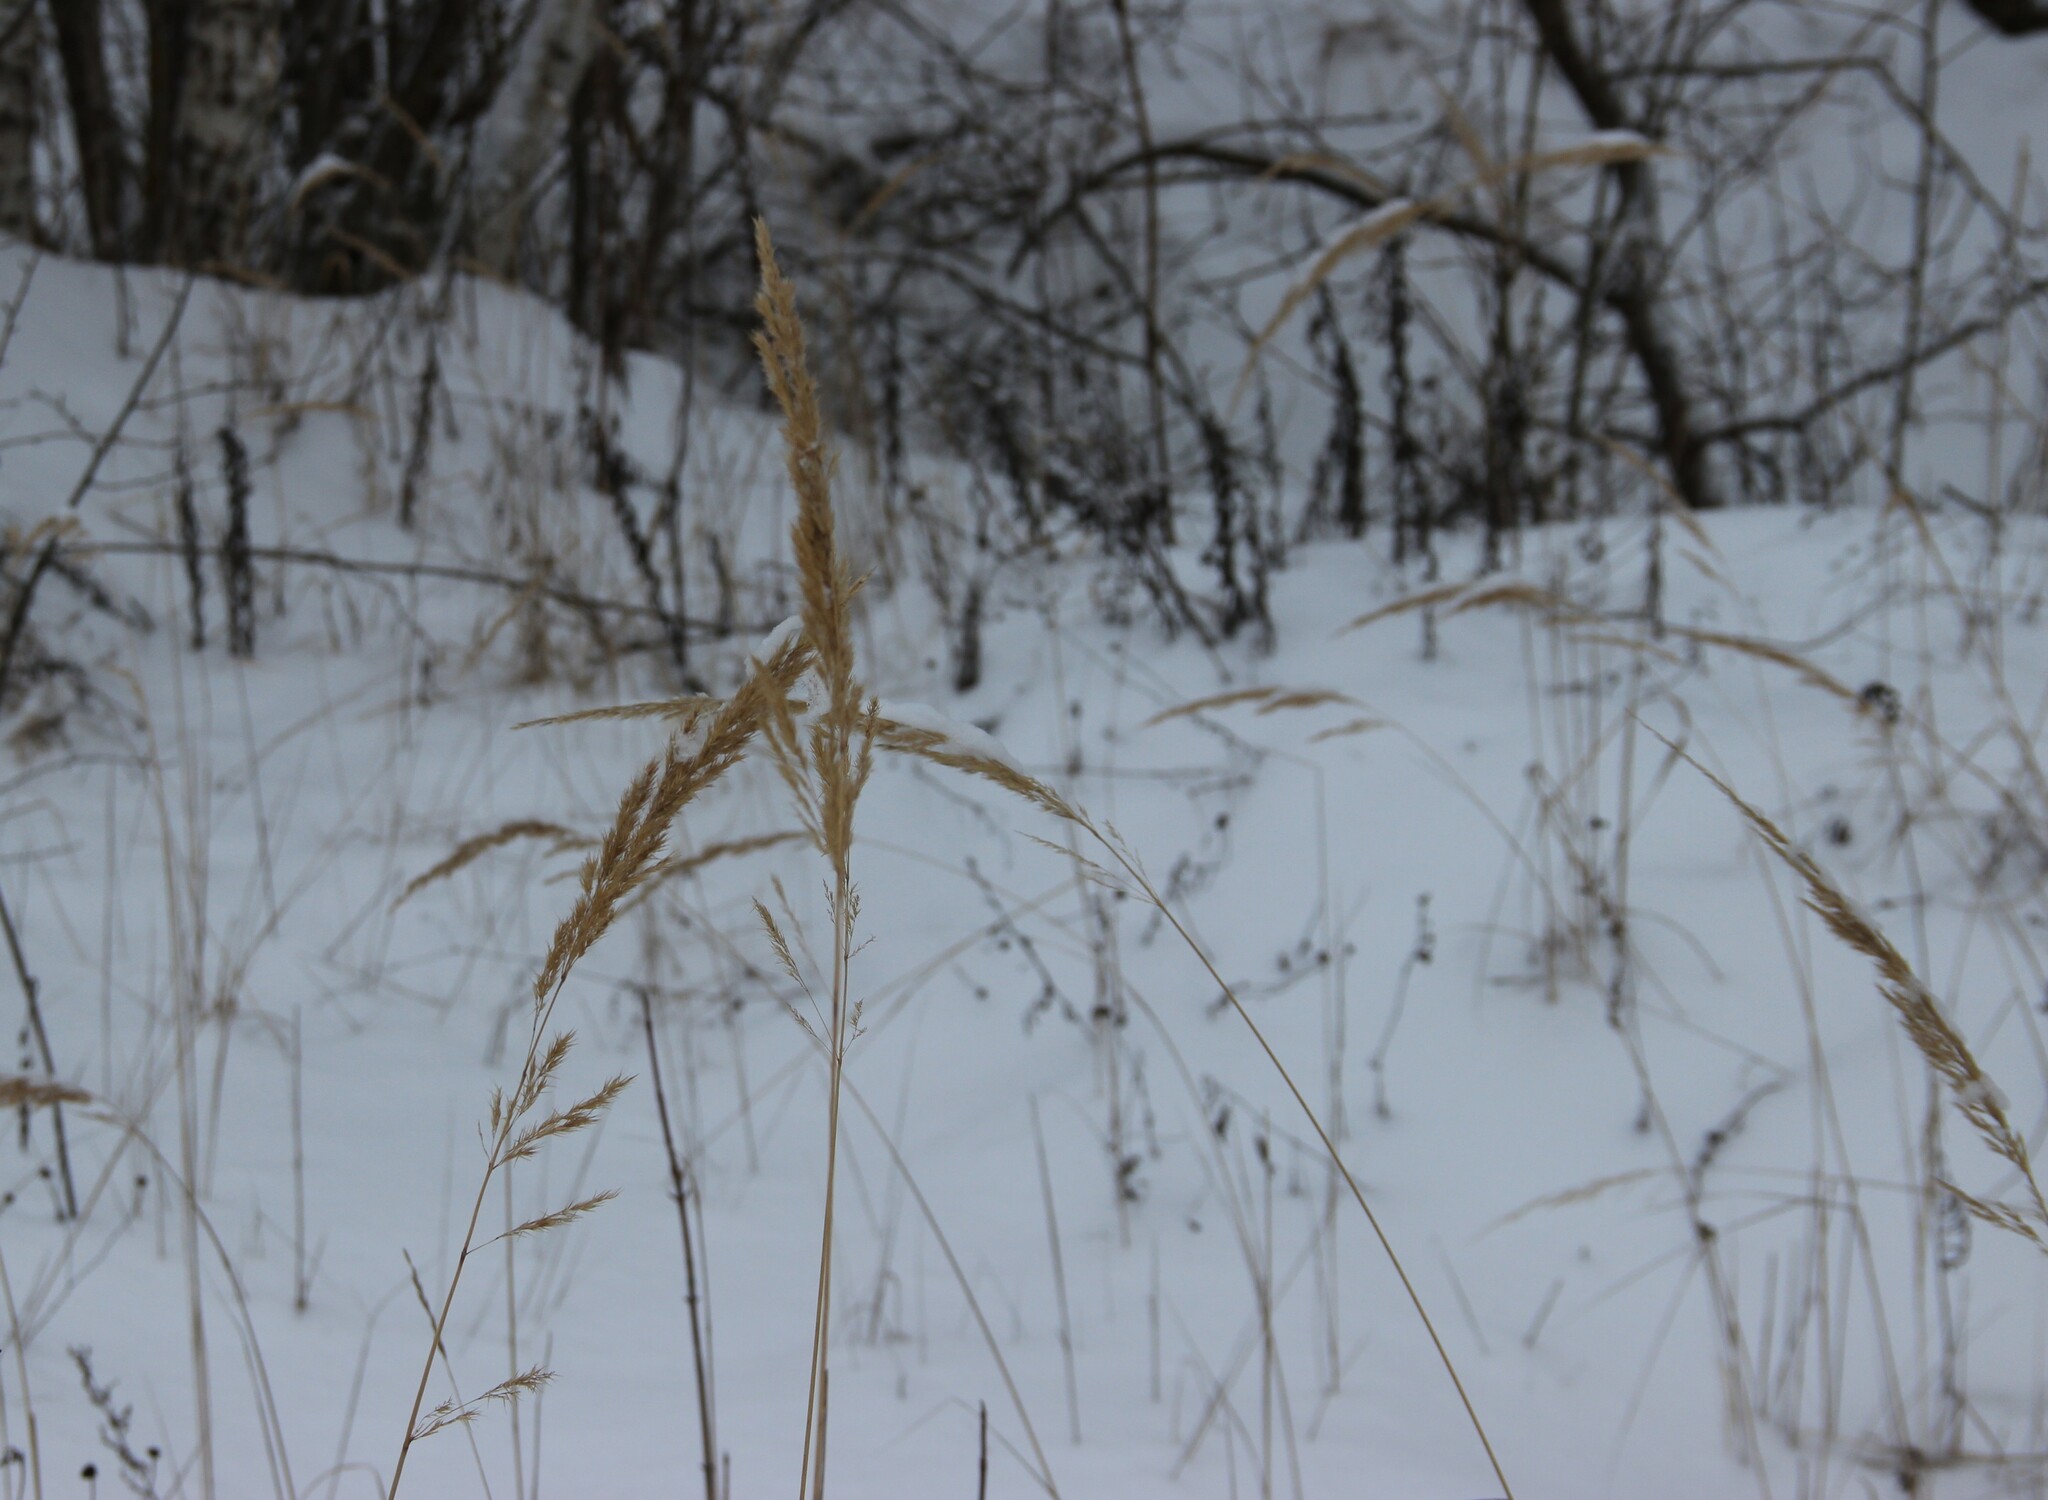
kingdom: Plantae
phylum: Tracheophyta
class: Liliopsida
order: Poales
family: Poaceae
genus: Calamagrostis
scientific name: Calamagrostis epigejos
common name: Wood small-reed
